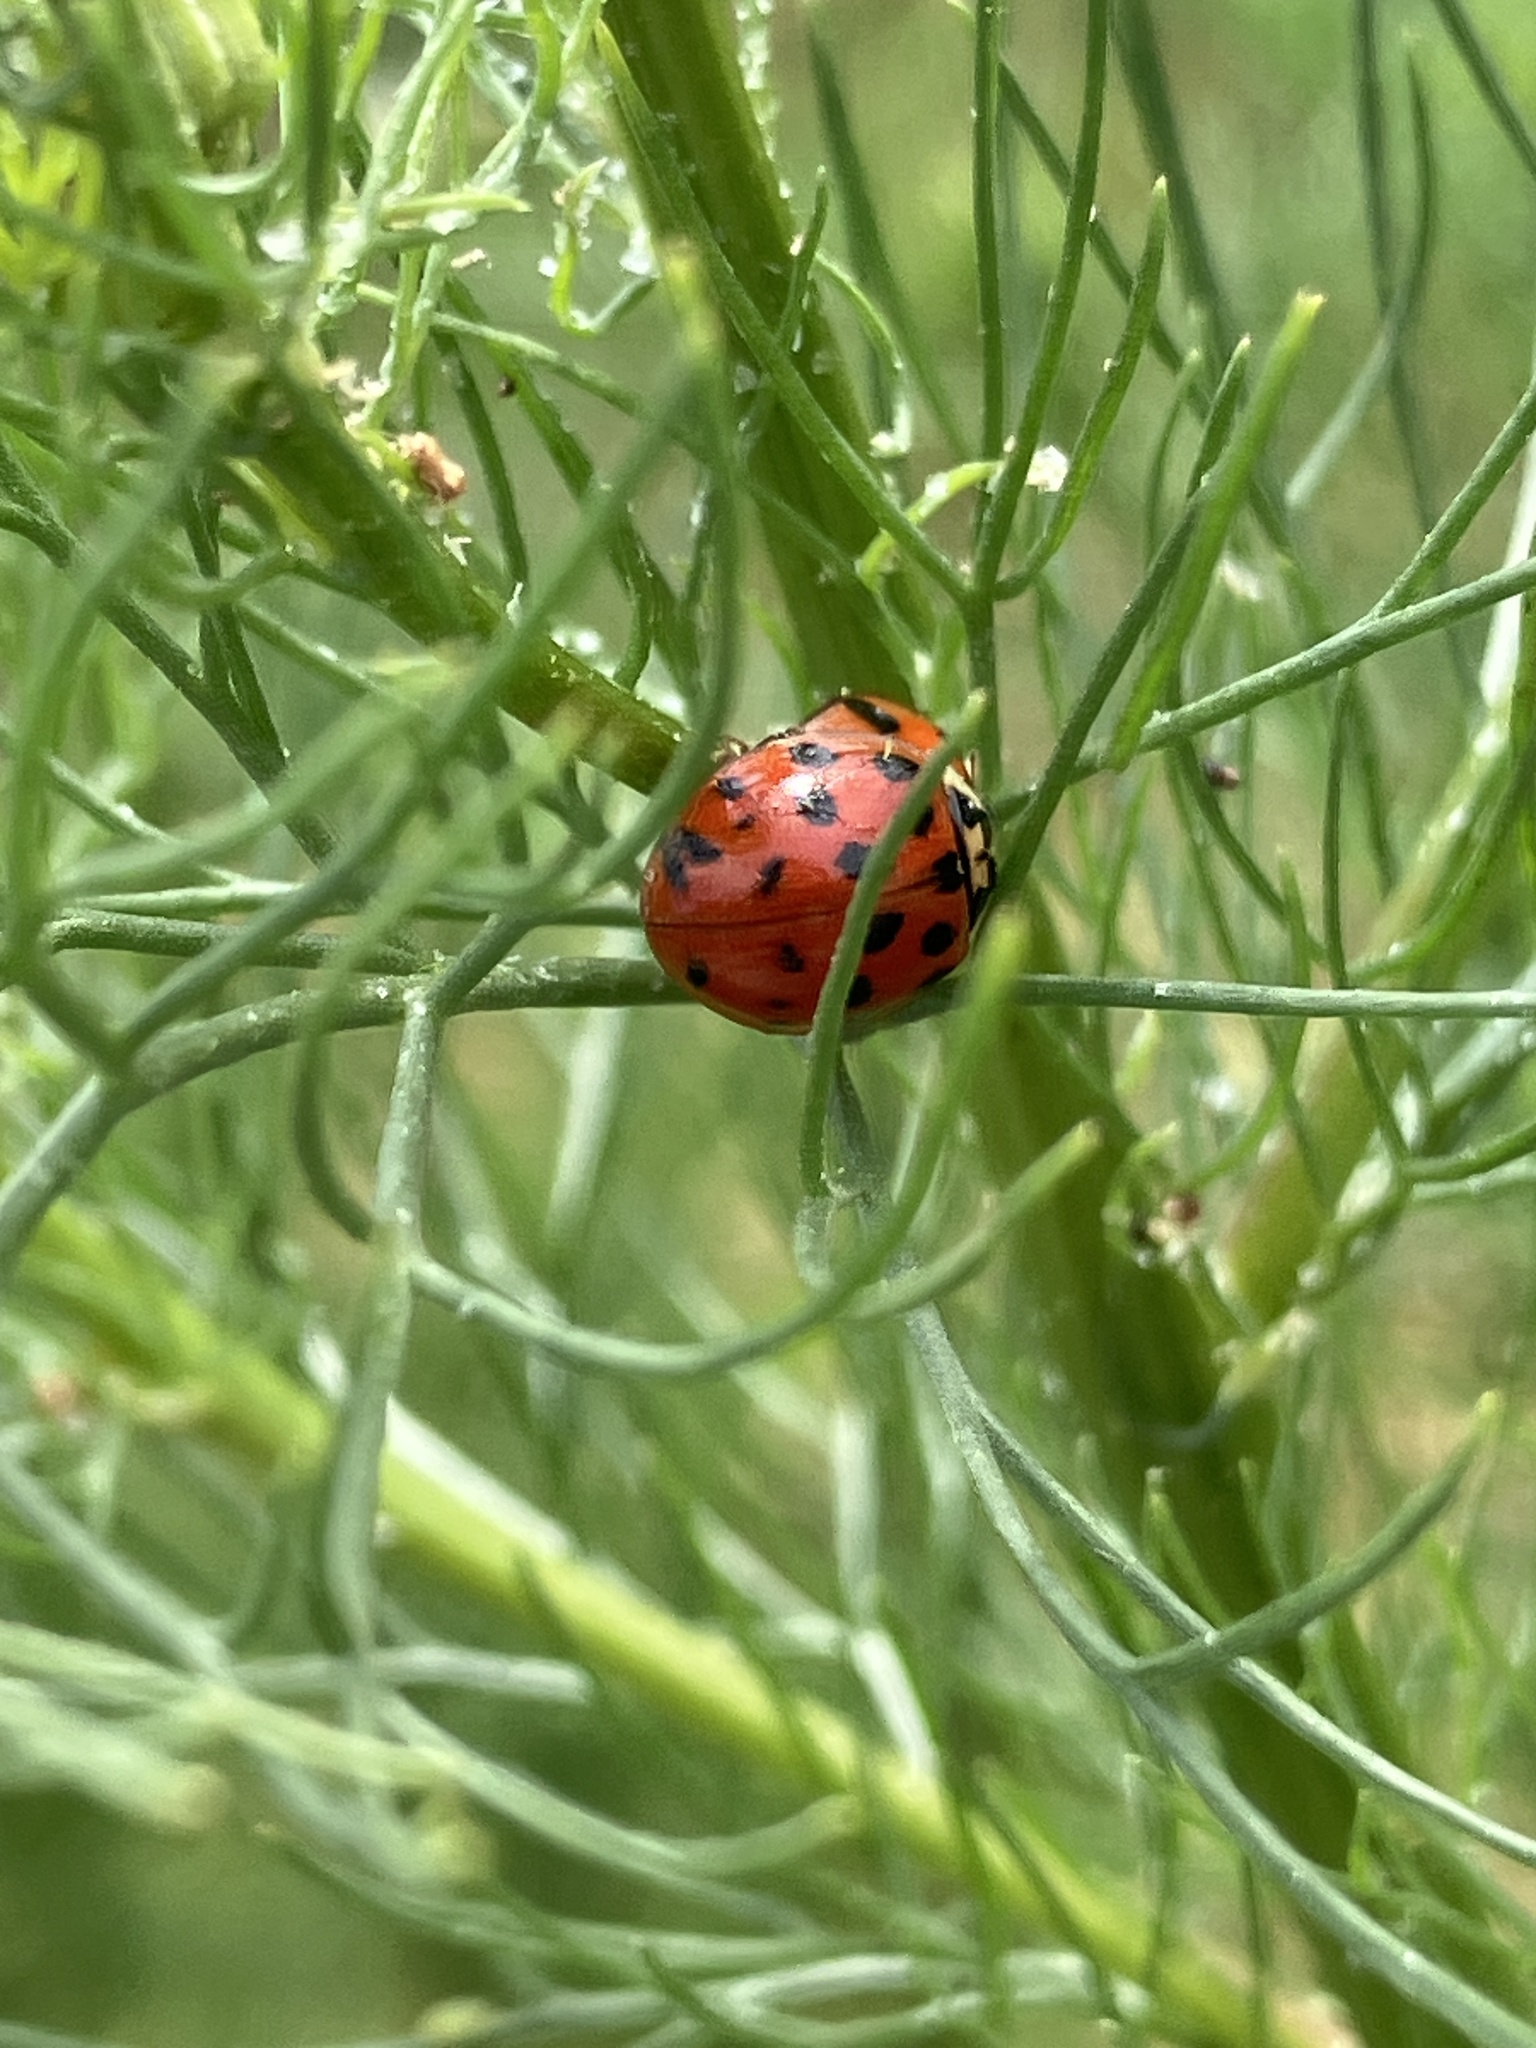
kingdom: Animalia
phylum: Arthropoda
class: Insecta
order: Coleoptera
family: Coccinellidae
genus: Harmonia
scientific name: Harmonia axyridis
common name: Harlequin ladybird
